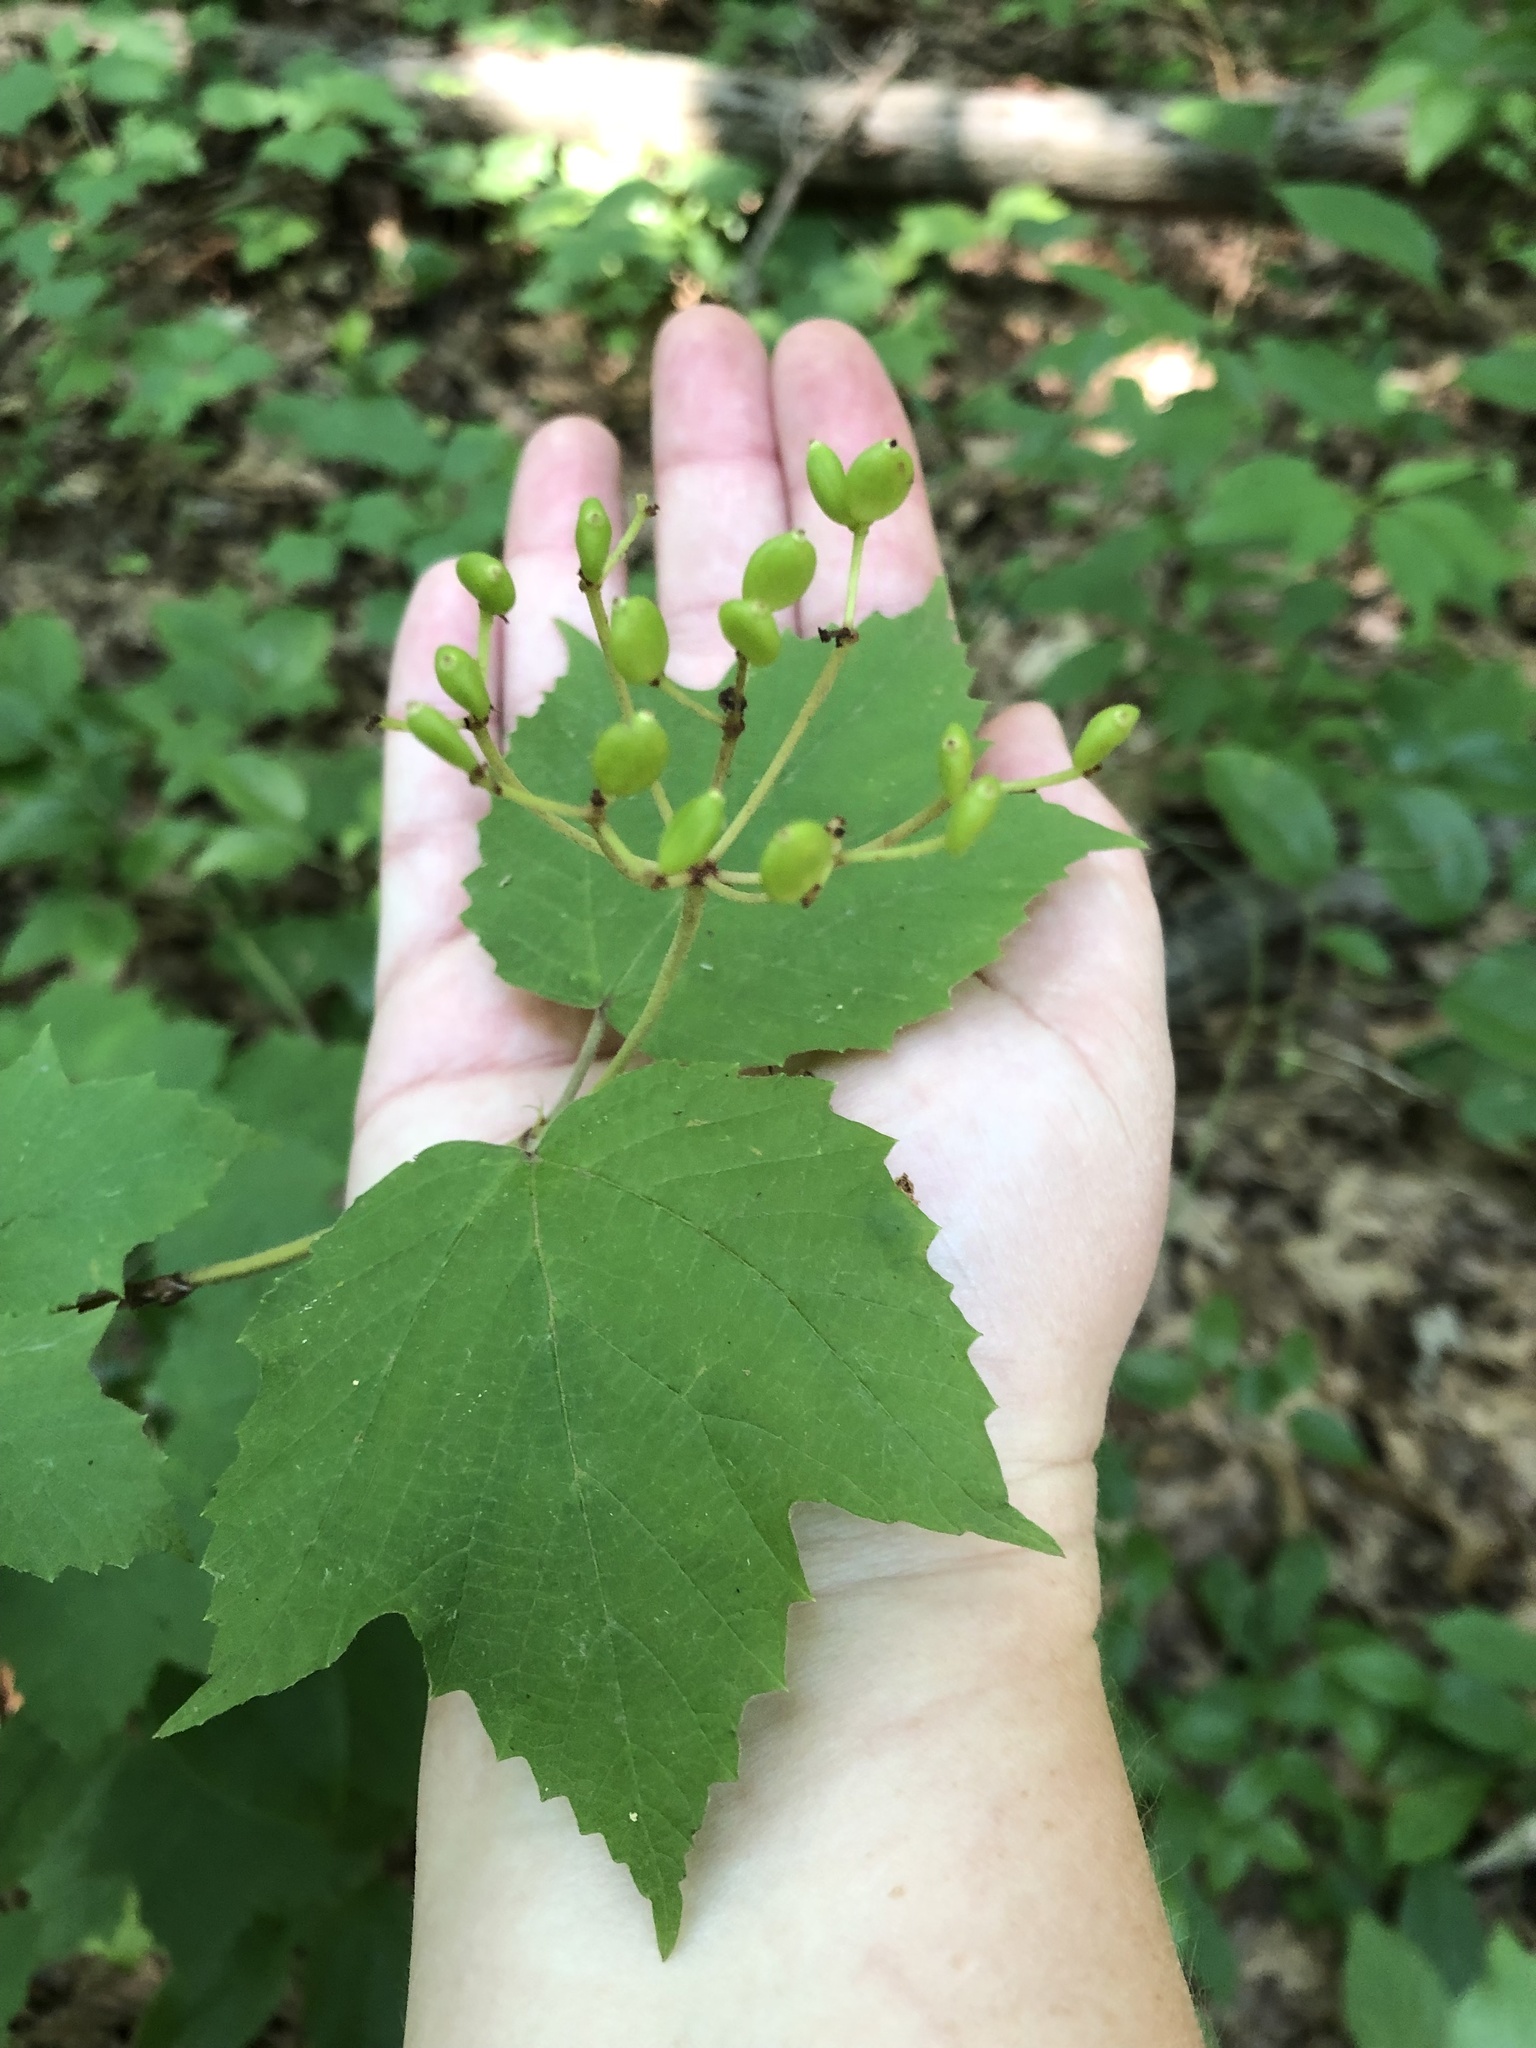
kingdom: Plantae
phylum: Tracheophyta
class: Magnoliopsida
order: Dipsacales
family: Viburnaceae
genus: Viburnum
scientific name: Viburnum acerifolium
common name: Dockmackie
